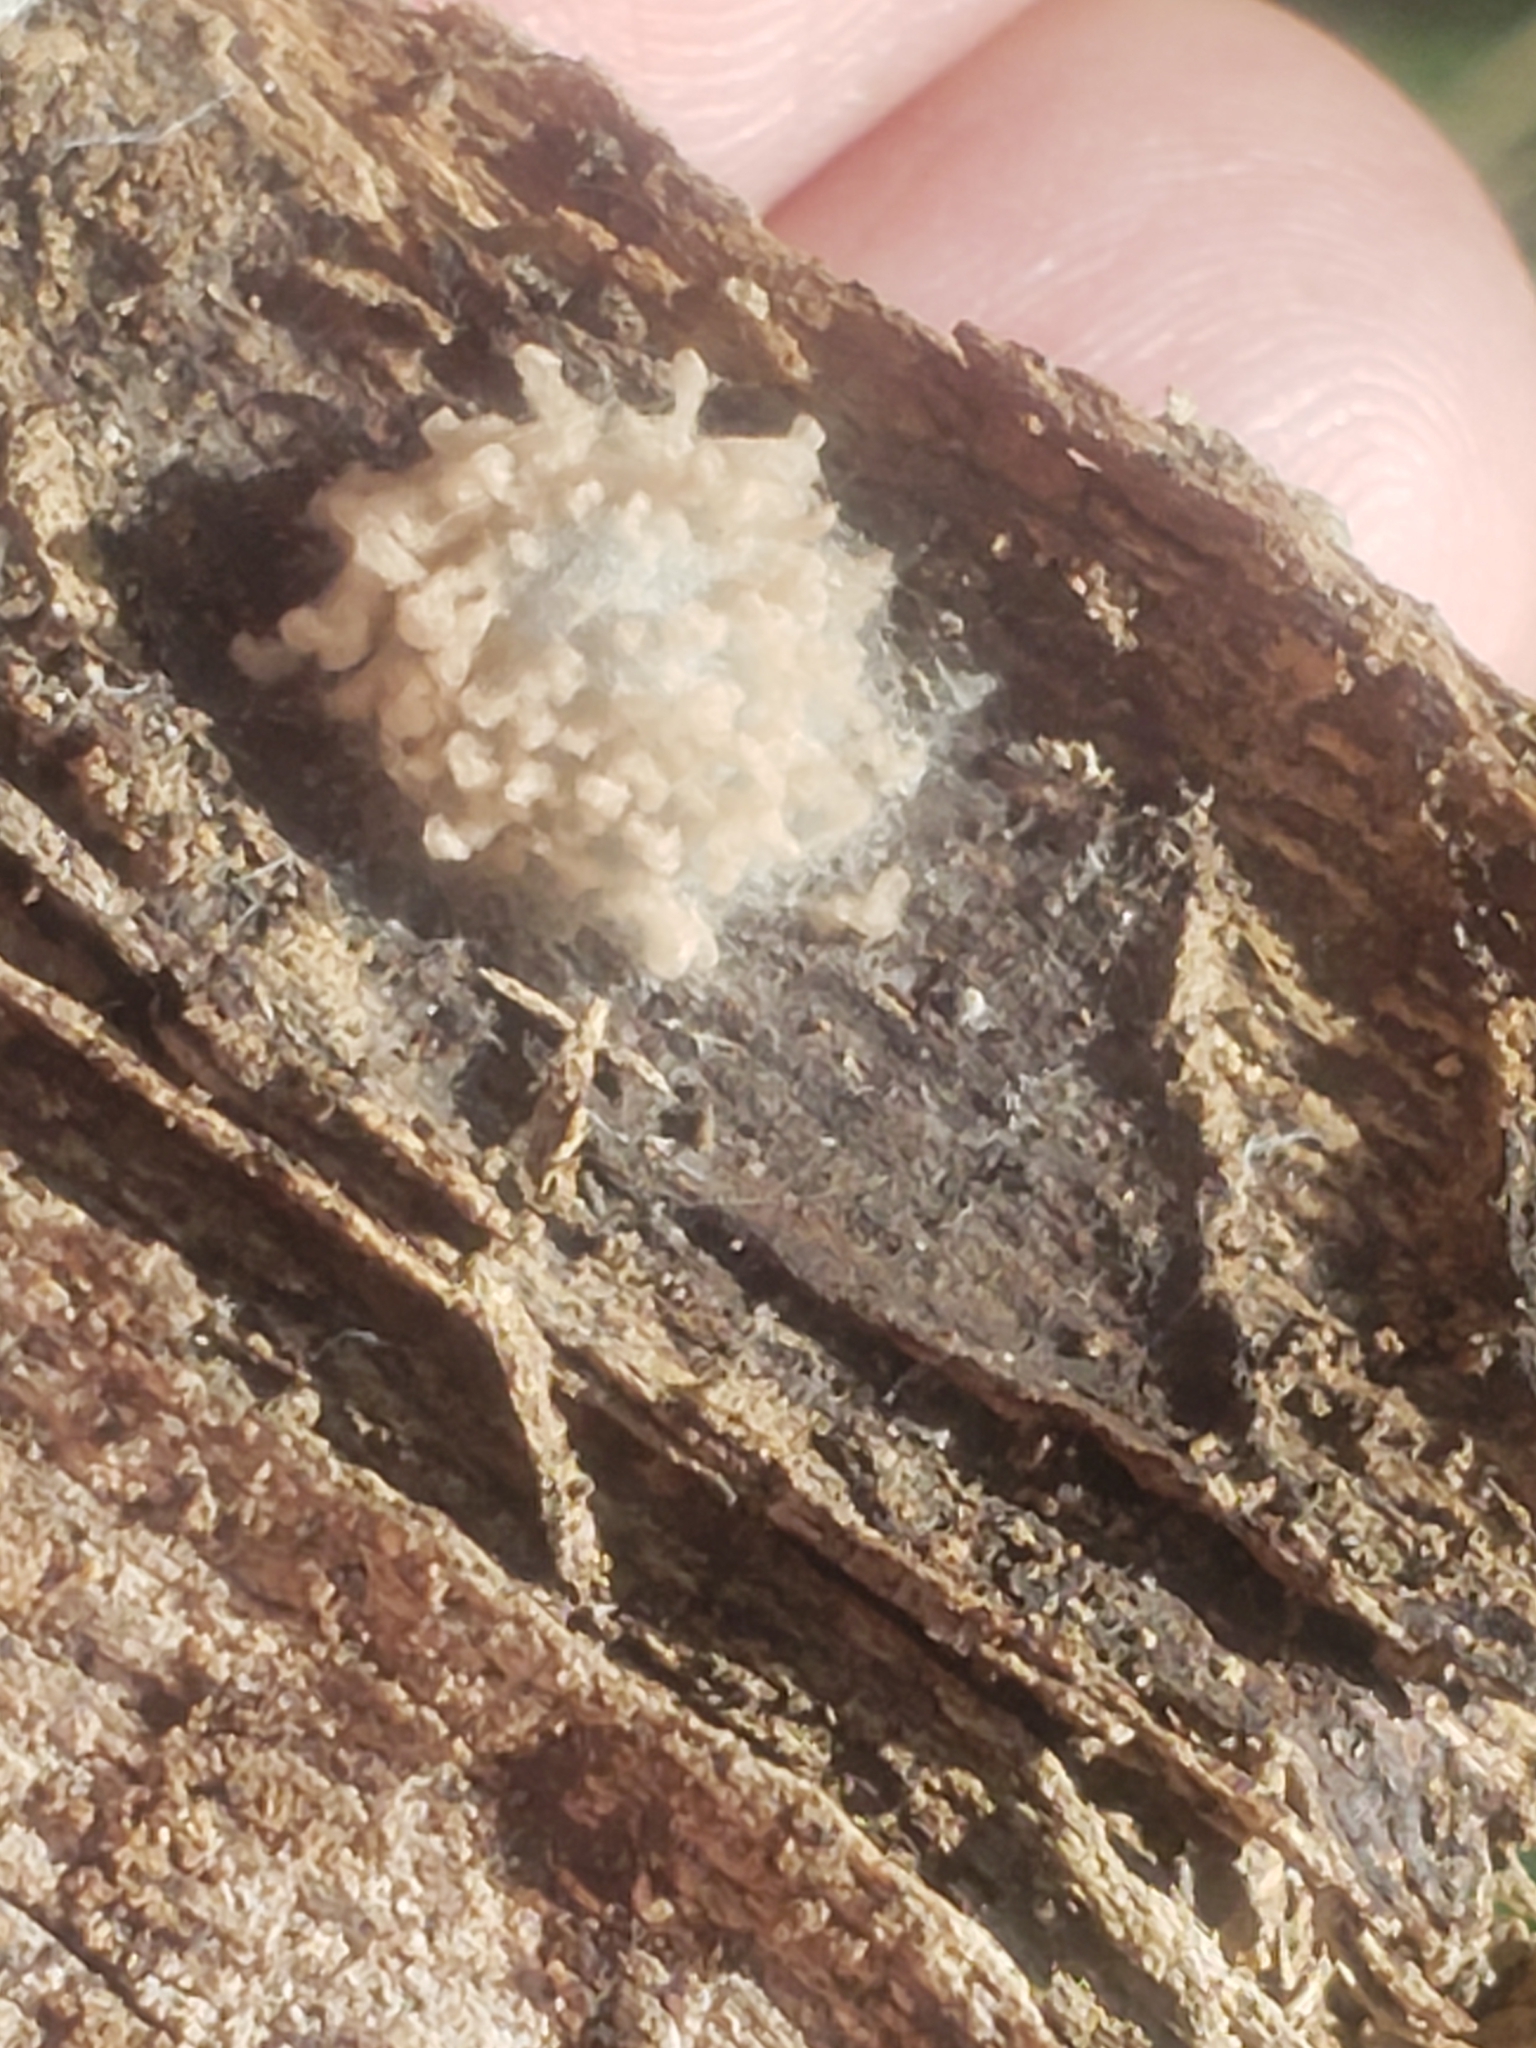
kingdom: Fungi
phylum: Ascomycota
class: Sordariomycetes
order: Hypocreales
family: Cordycipitaceae
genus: Gibellula
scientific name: Gibellula arachnophila
